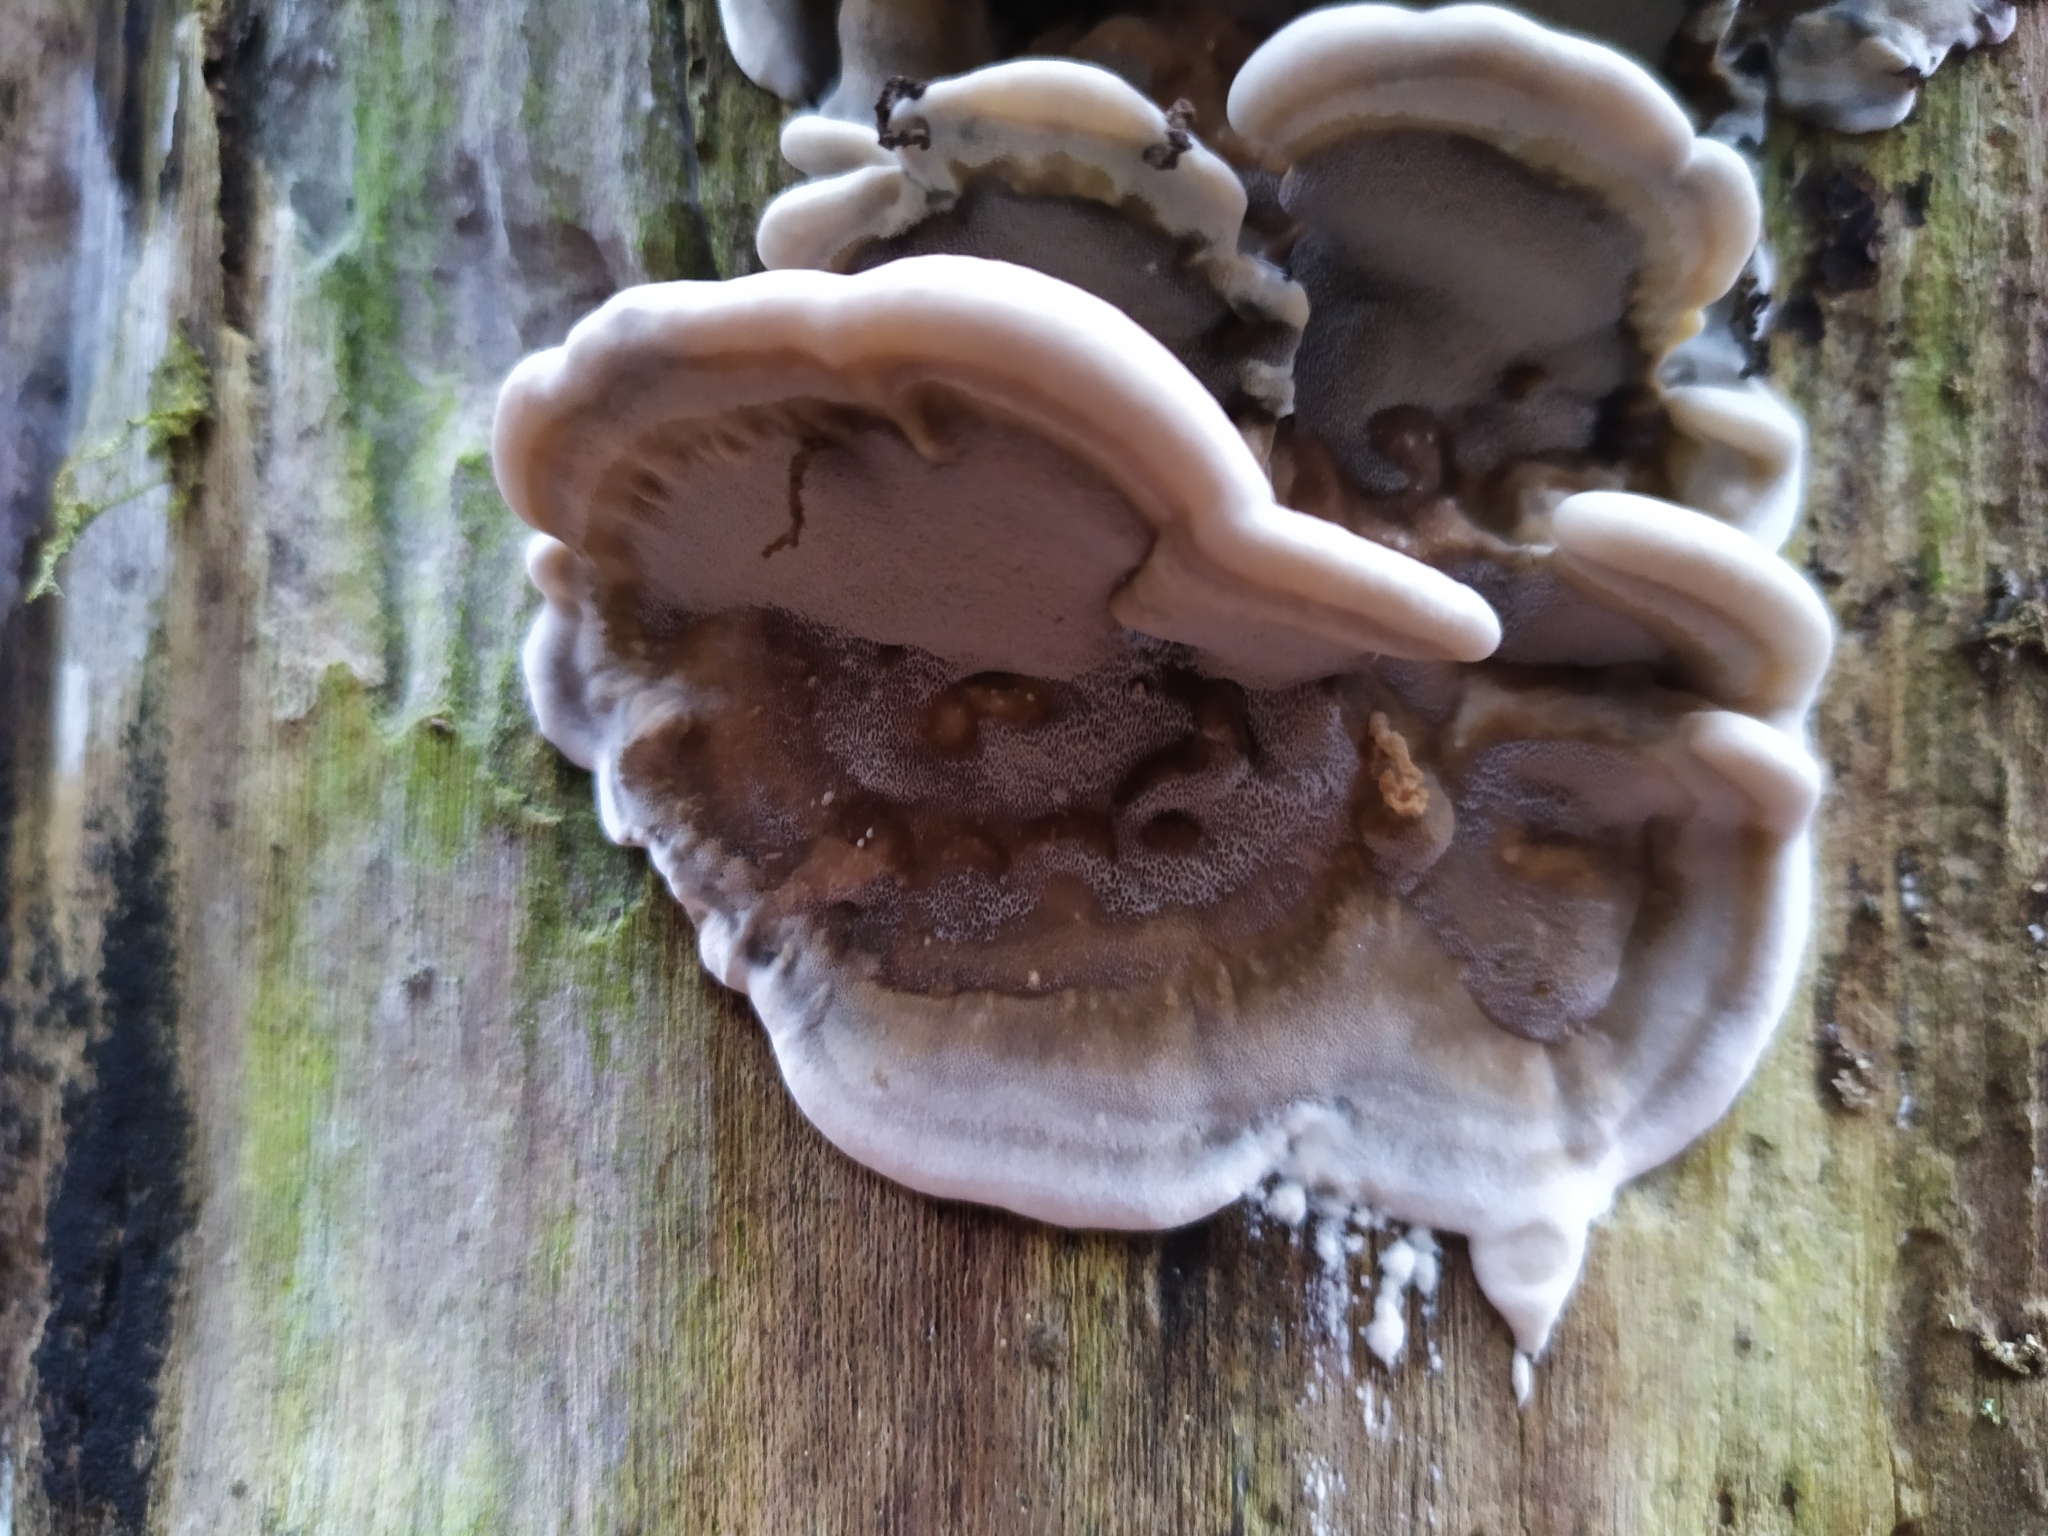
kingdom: Fungi
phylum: Basidiomycota
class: Agaricomycetes
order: Polyporales
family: Phanerochaetaceae
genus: Bjerkandera
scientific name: Bjerkandera adusta
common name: Smoky bracket
